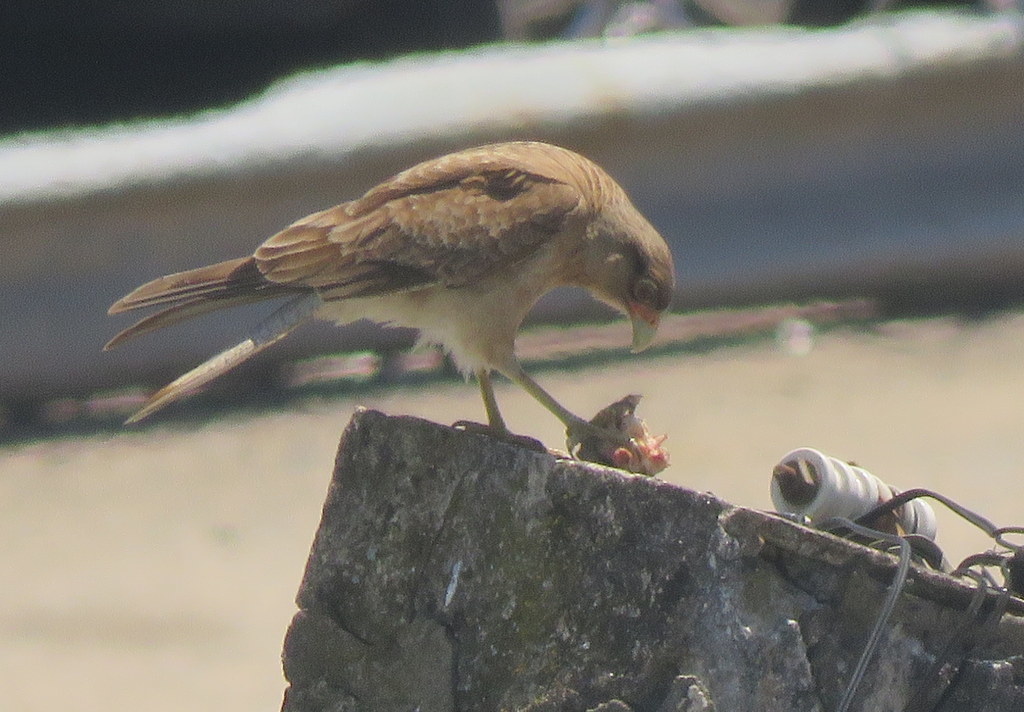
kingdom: Animalia
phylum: Chordata
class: Aves
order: Falconiformes
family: Falconidae
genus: Daptrius
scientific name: Daptrius
